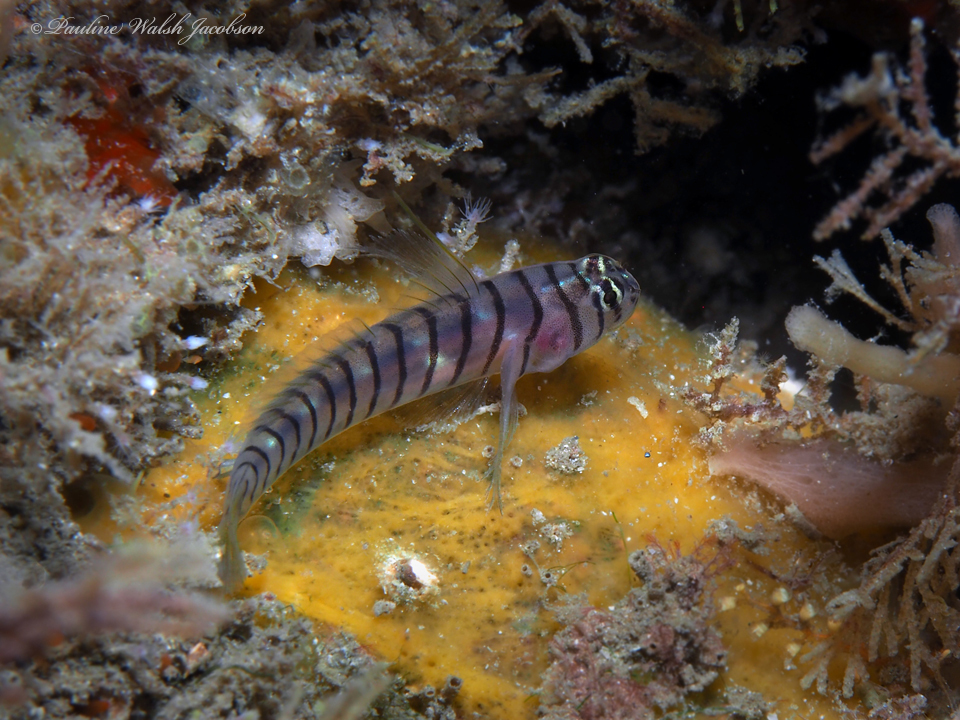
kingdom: Animalia
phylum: Chordata
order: Perciformes
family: Gobiidae
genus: Tigrigobius
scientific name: Tigrigobius macrodon
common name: Tiger goby
